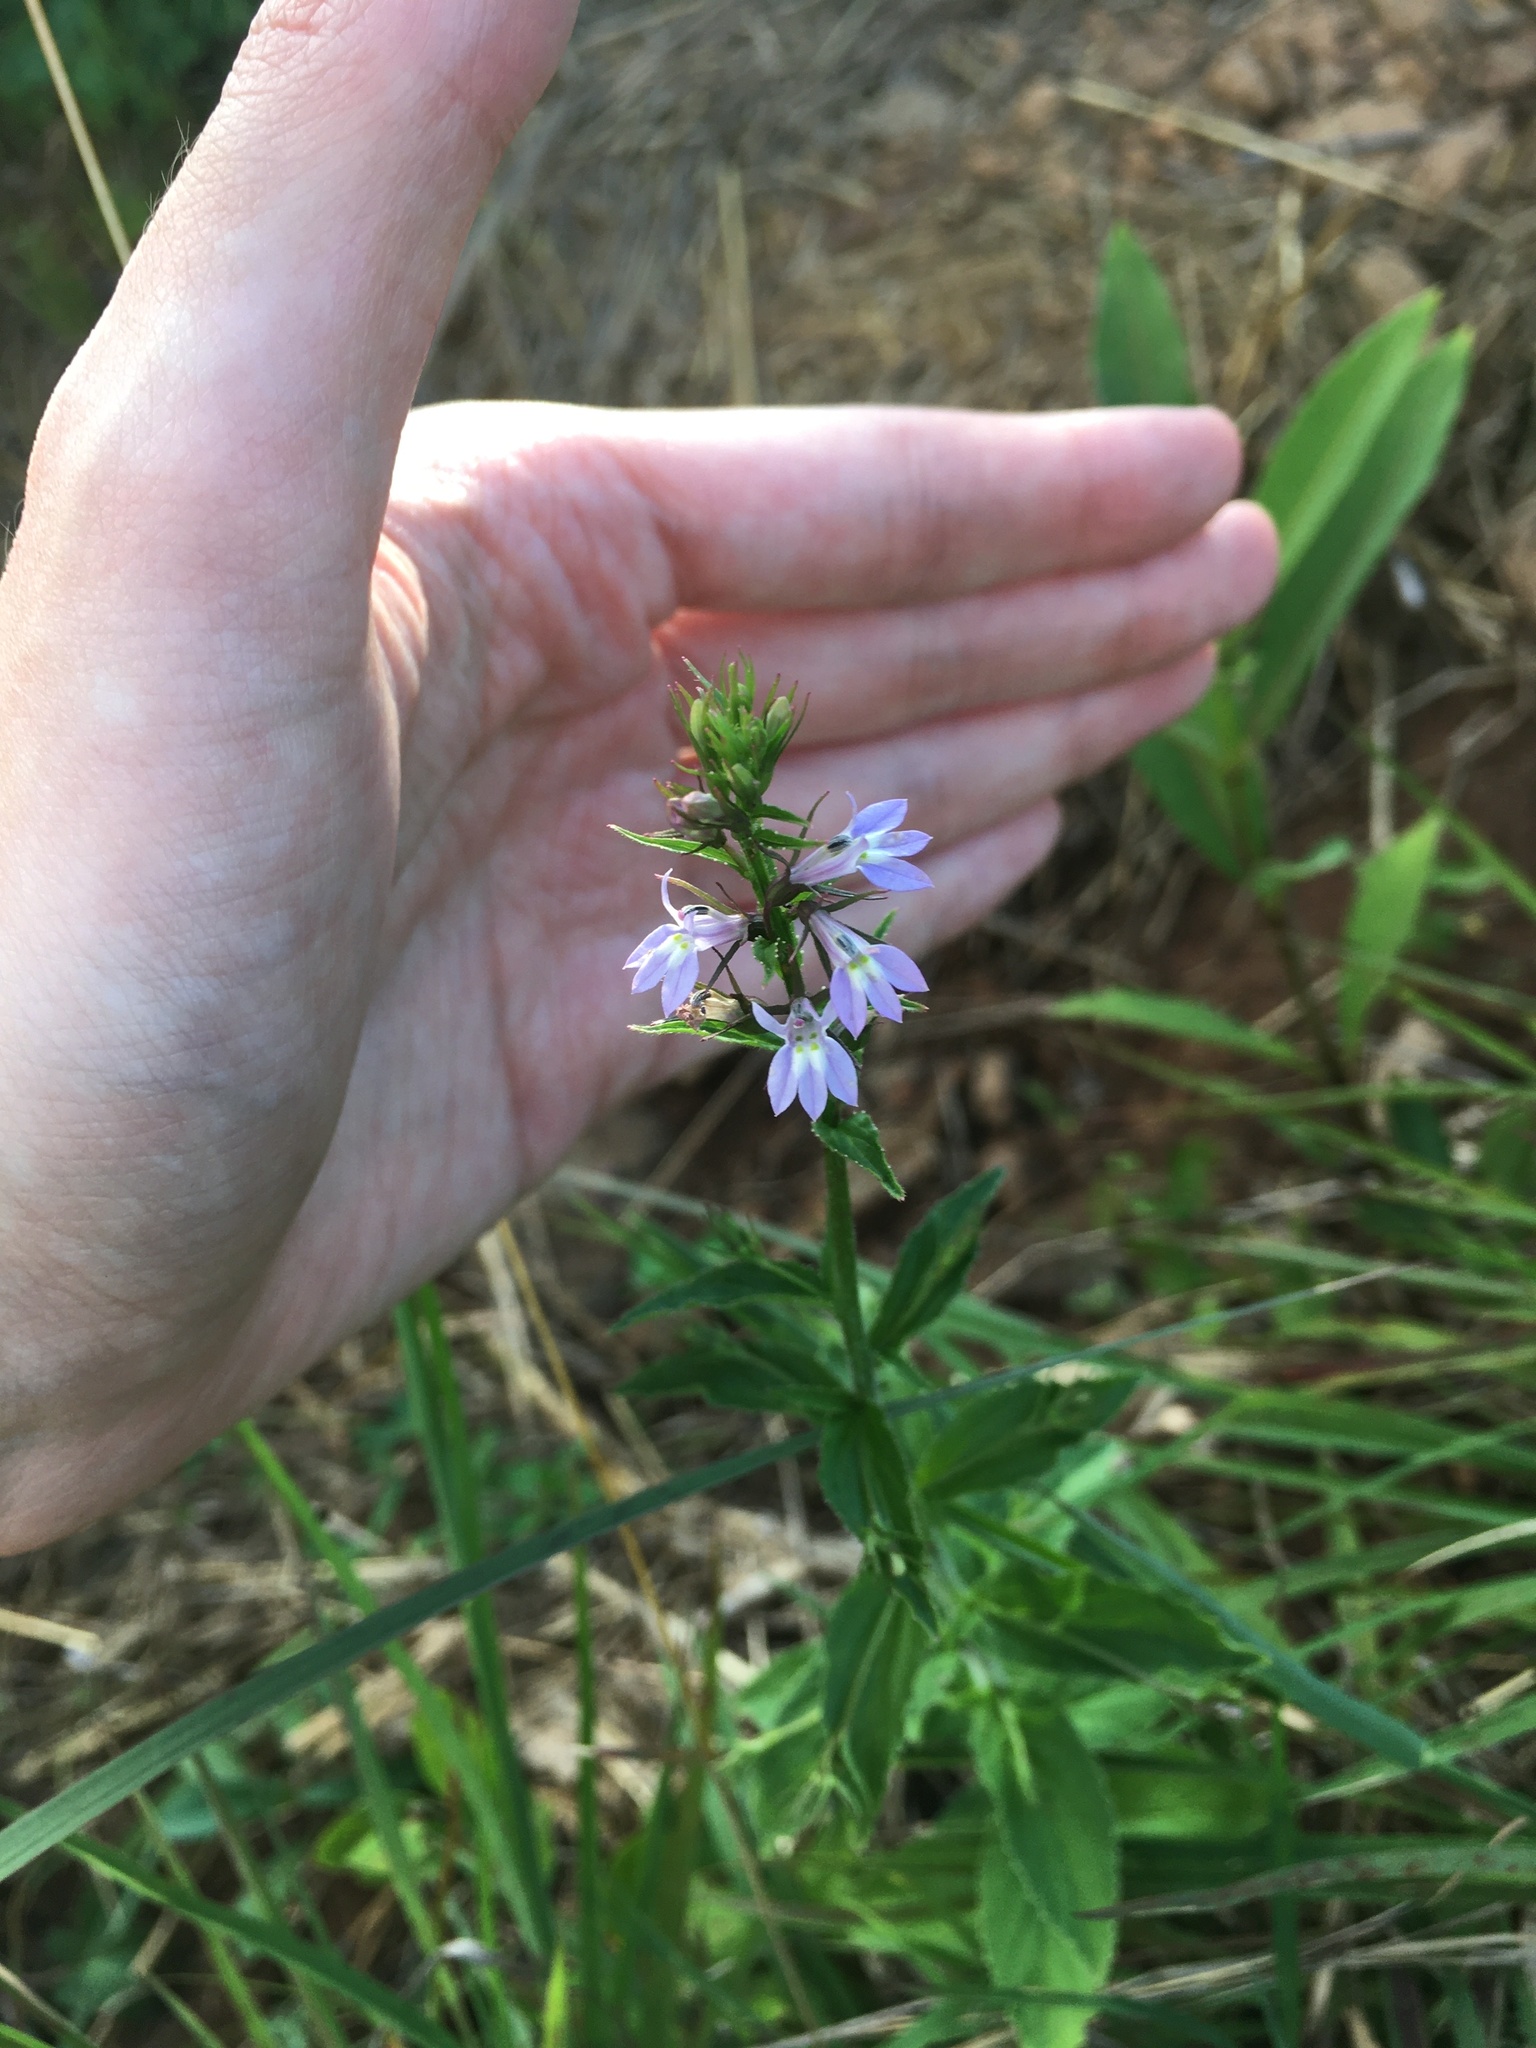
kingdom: Plantae
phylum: Tracheophyta
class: Magnoliopsida
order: Asterales
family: Campanulaceae
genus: Lobelia
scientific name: Lobelia inflata
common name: Indian tobacco
